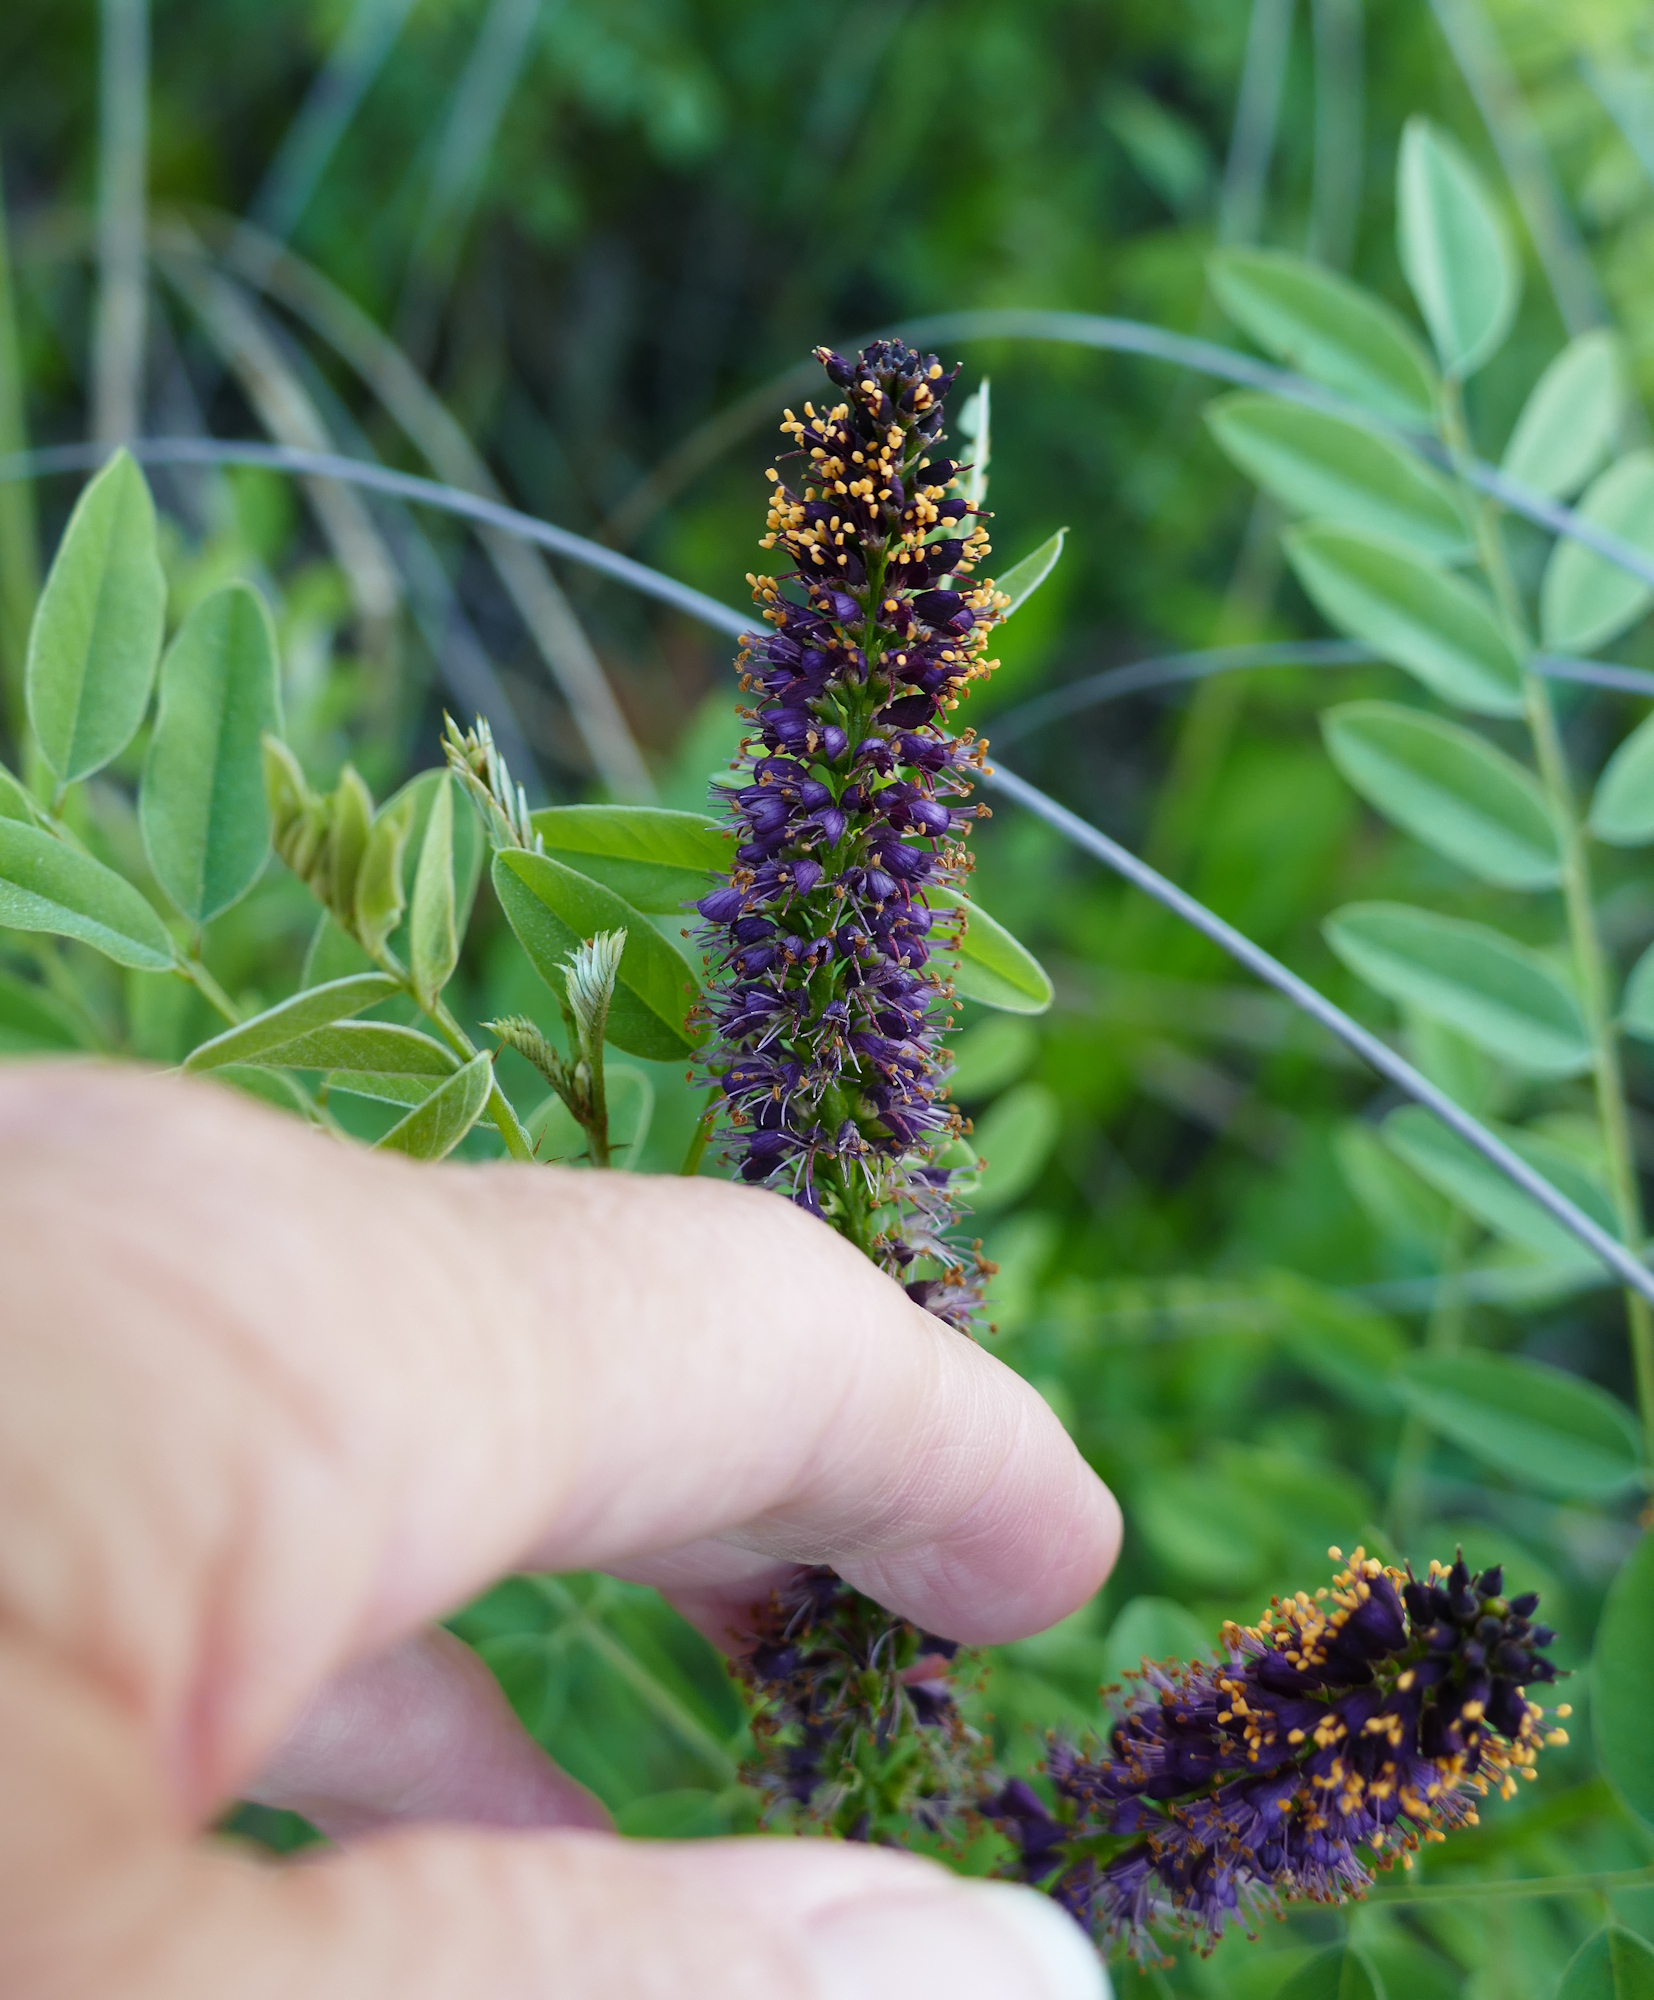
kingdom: Plantae
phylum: Tracheophyta
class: Magnoliopsida
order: Fabales
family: Fabaceae
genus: Amorpha
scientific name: Amorpha fruticosa
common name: False indigo
